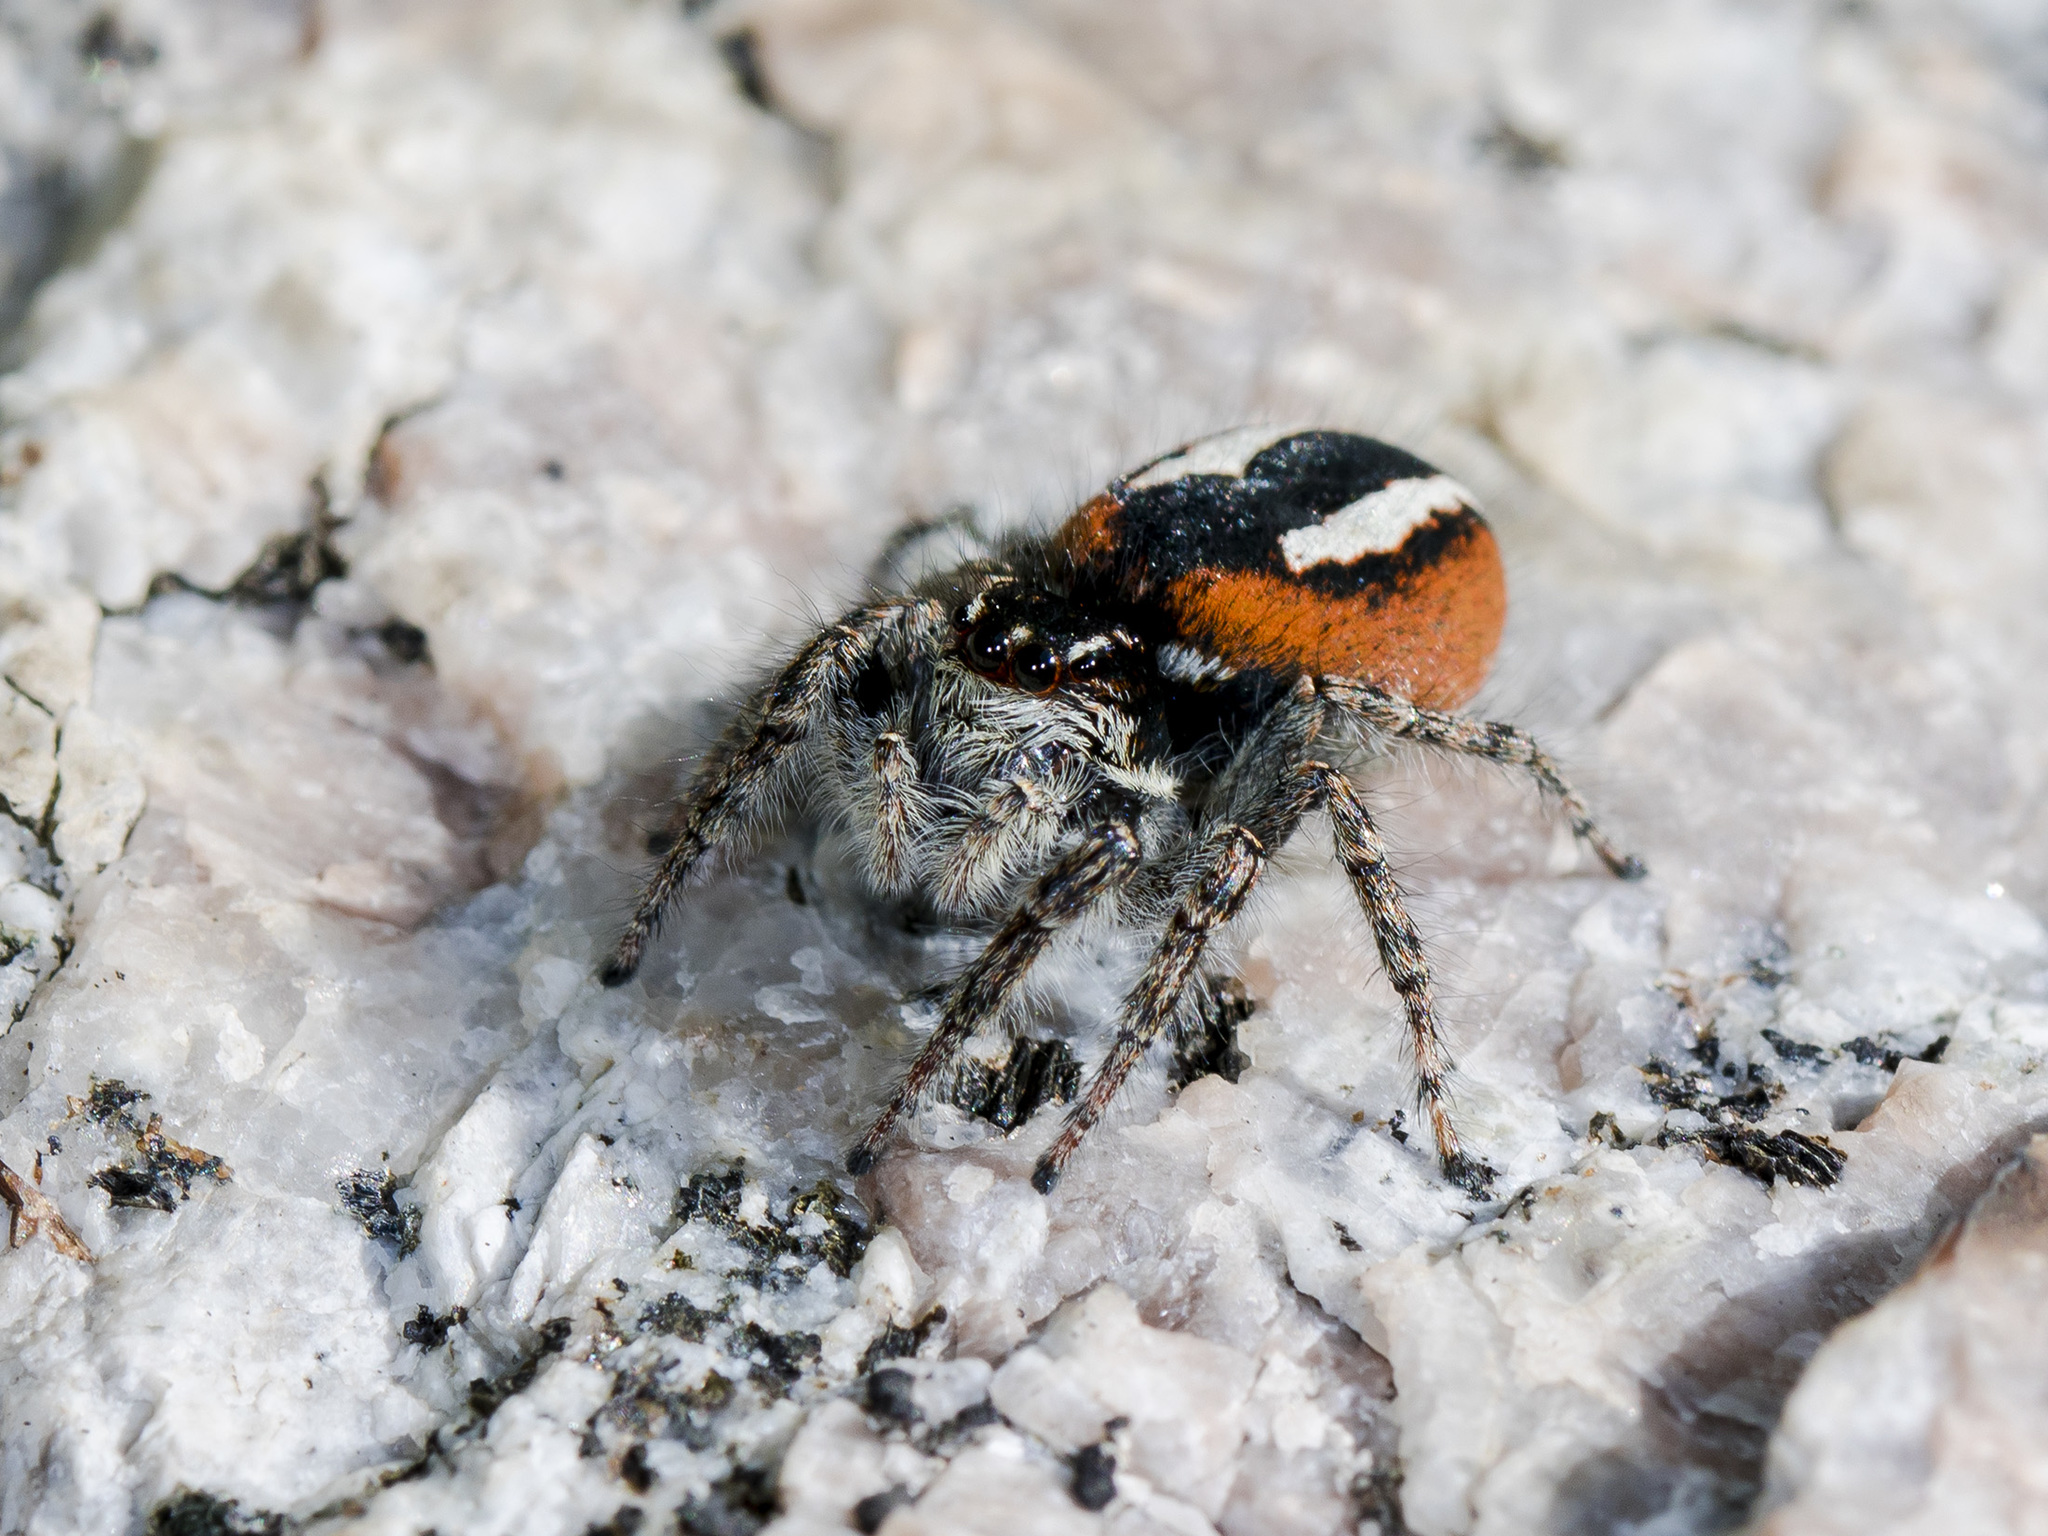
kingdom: Animalia
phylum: Arthropoda
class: Arachnida
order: Araneae
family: Salticidae
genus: Philaeus
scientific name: Philaeus chrysops
